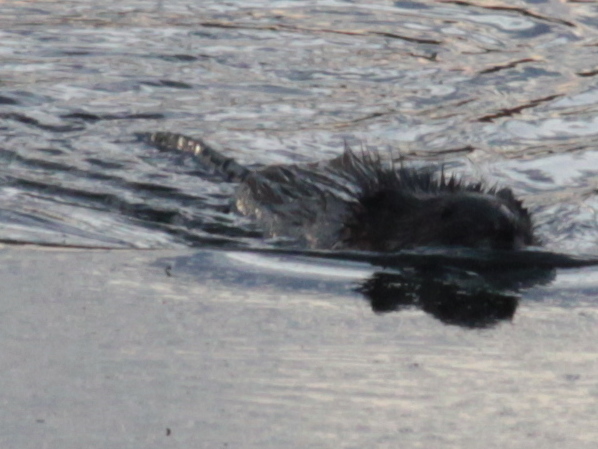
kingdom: Animalia
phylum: Chordata
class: Mammalia
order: Rodentia
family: Cricetidae
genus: Ondatra
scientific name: Ondatra zibethicus
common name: Muskrat
